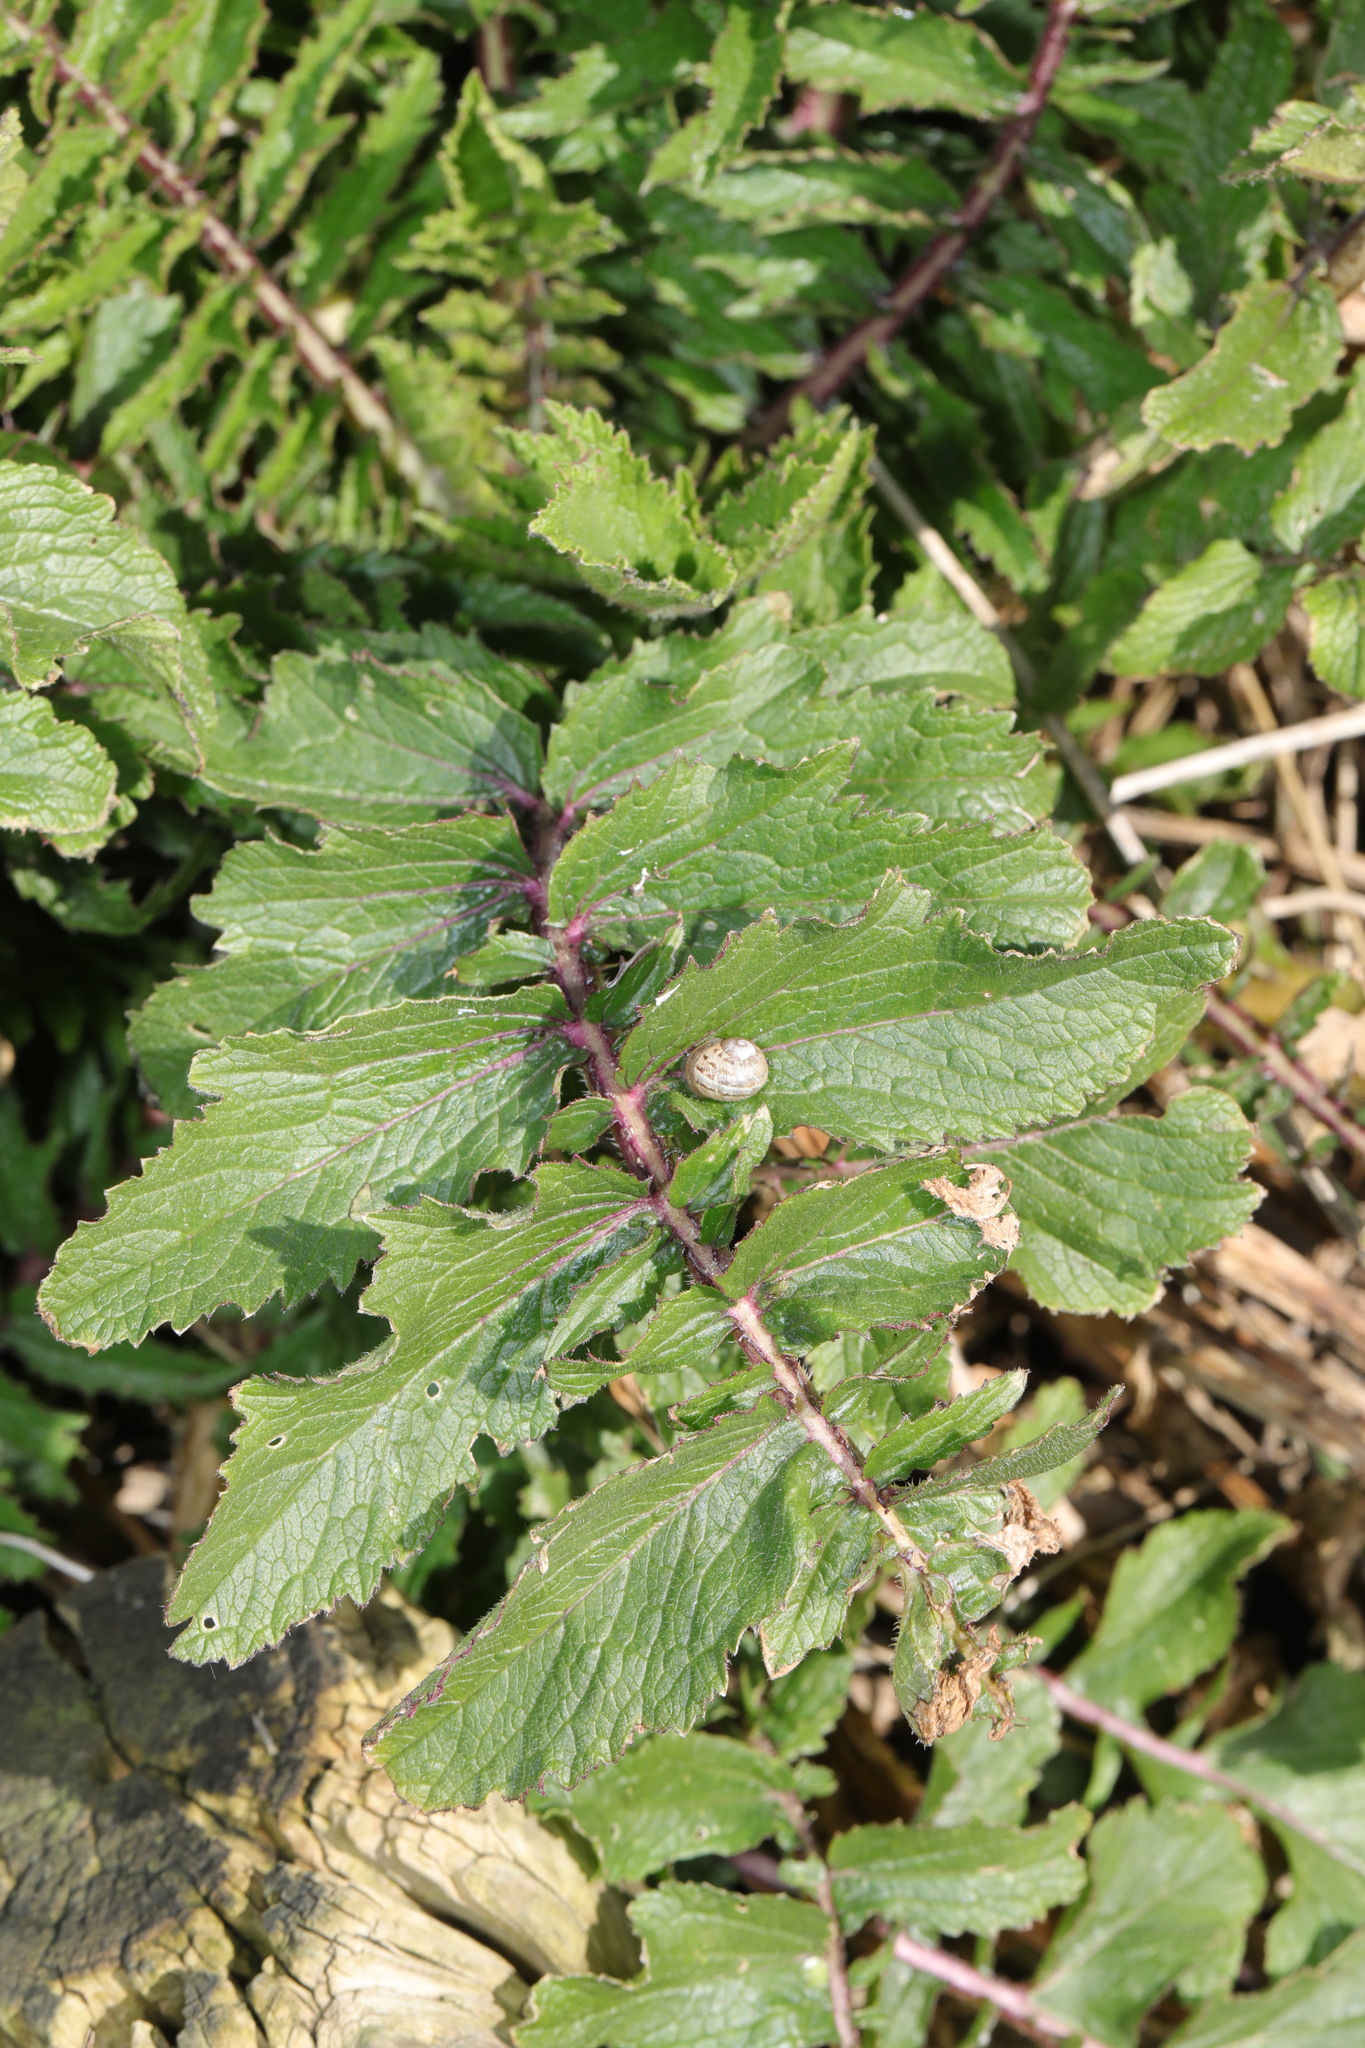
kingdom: Plantae
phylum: Tracheophyta
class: Magnoliopsida
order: Brassicales
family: Brassicaceae
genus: Raphanus
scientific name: Raphanus raphanistrum
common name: Wild radish
